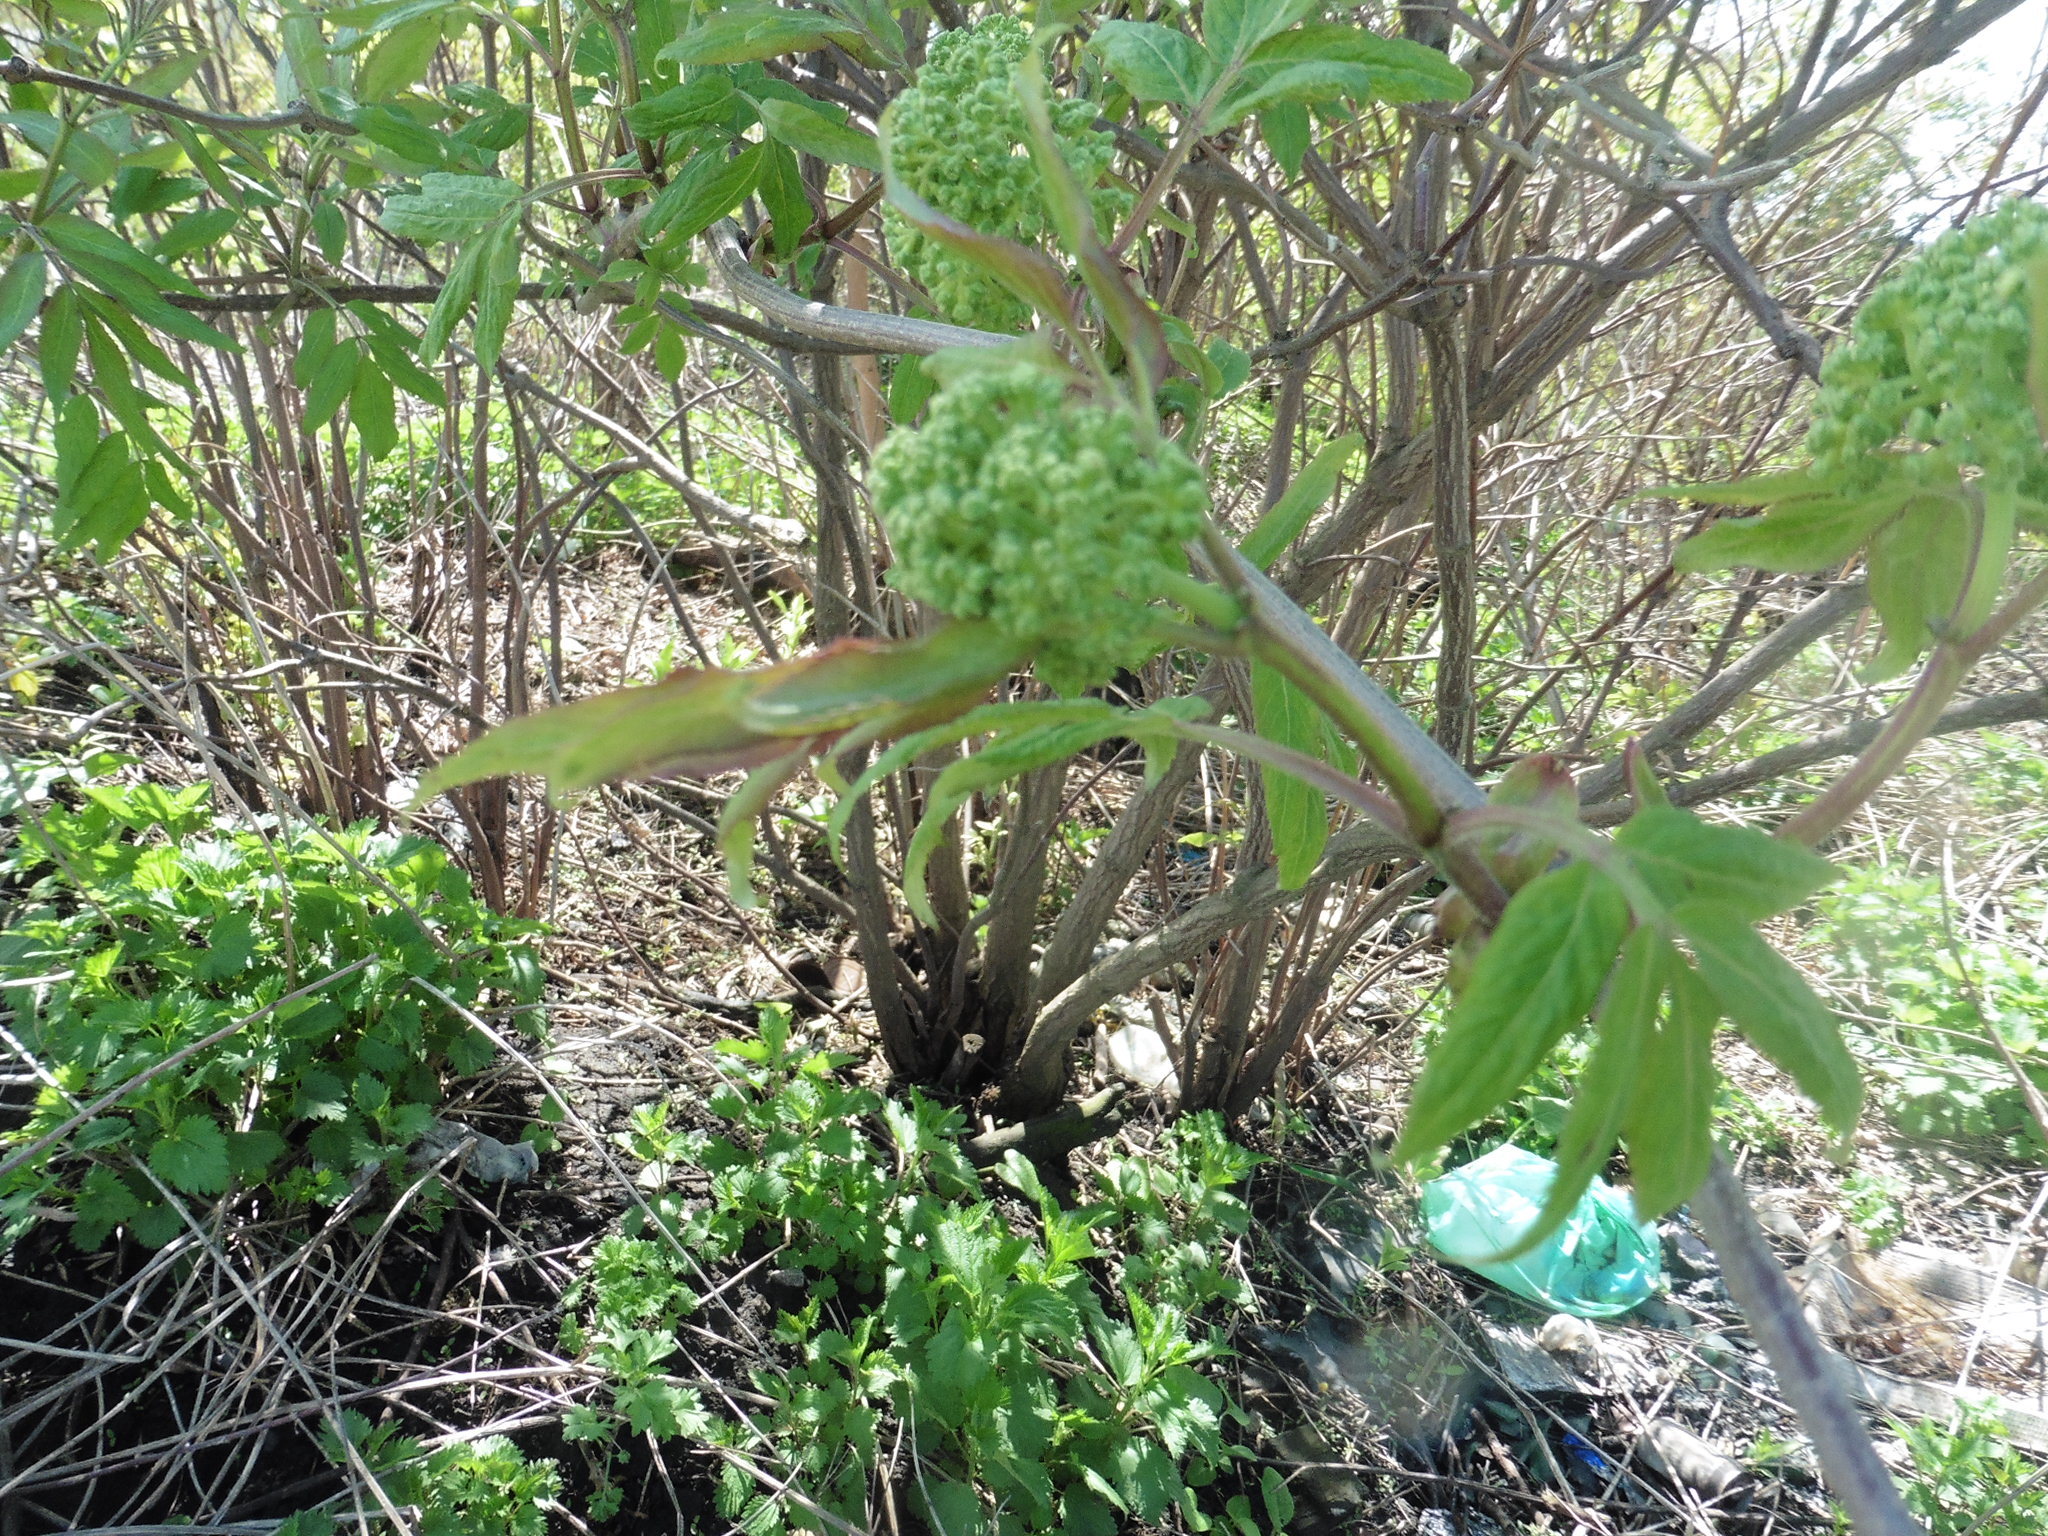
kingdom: Plantae
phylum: Tracheophyta
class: Magnoliopsida
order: Dipsacales
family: Viburnaceae
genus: Sambucus
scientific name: Sambucus racemosa
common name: Red-berried elder
